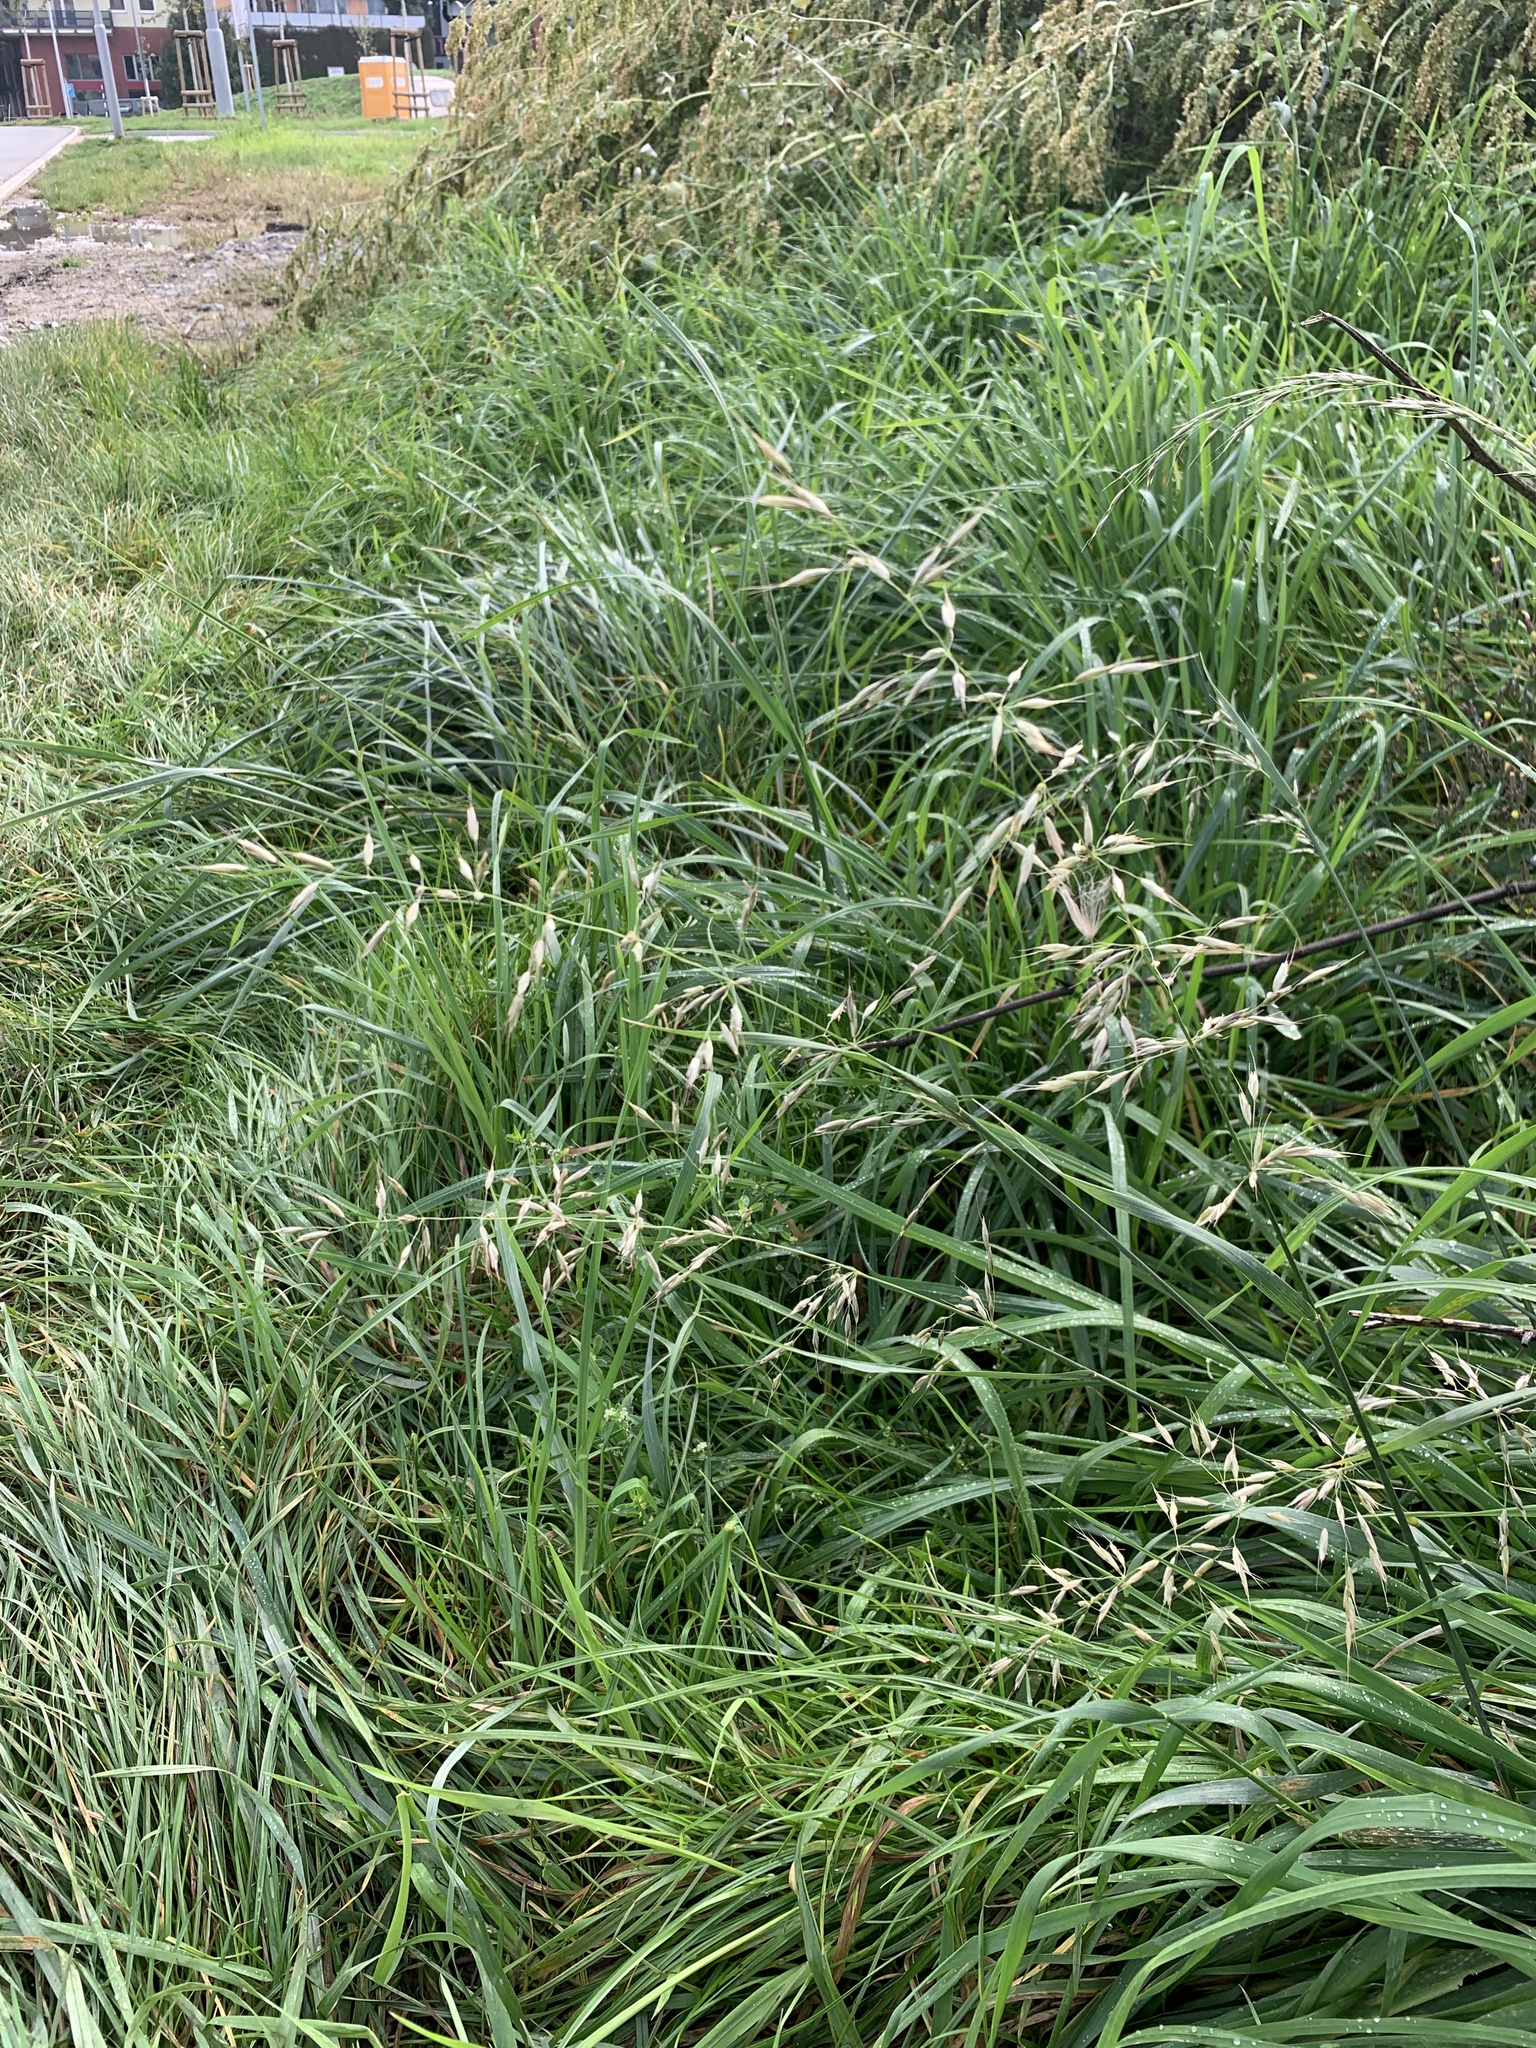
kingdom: Plantae
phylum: Tracheophyta
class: Liliopsida
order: Poales
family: Poaceae
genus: Arrhenatherum
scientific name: Arrhenatherum elatius
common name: Tall oatgrass
